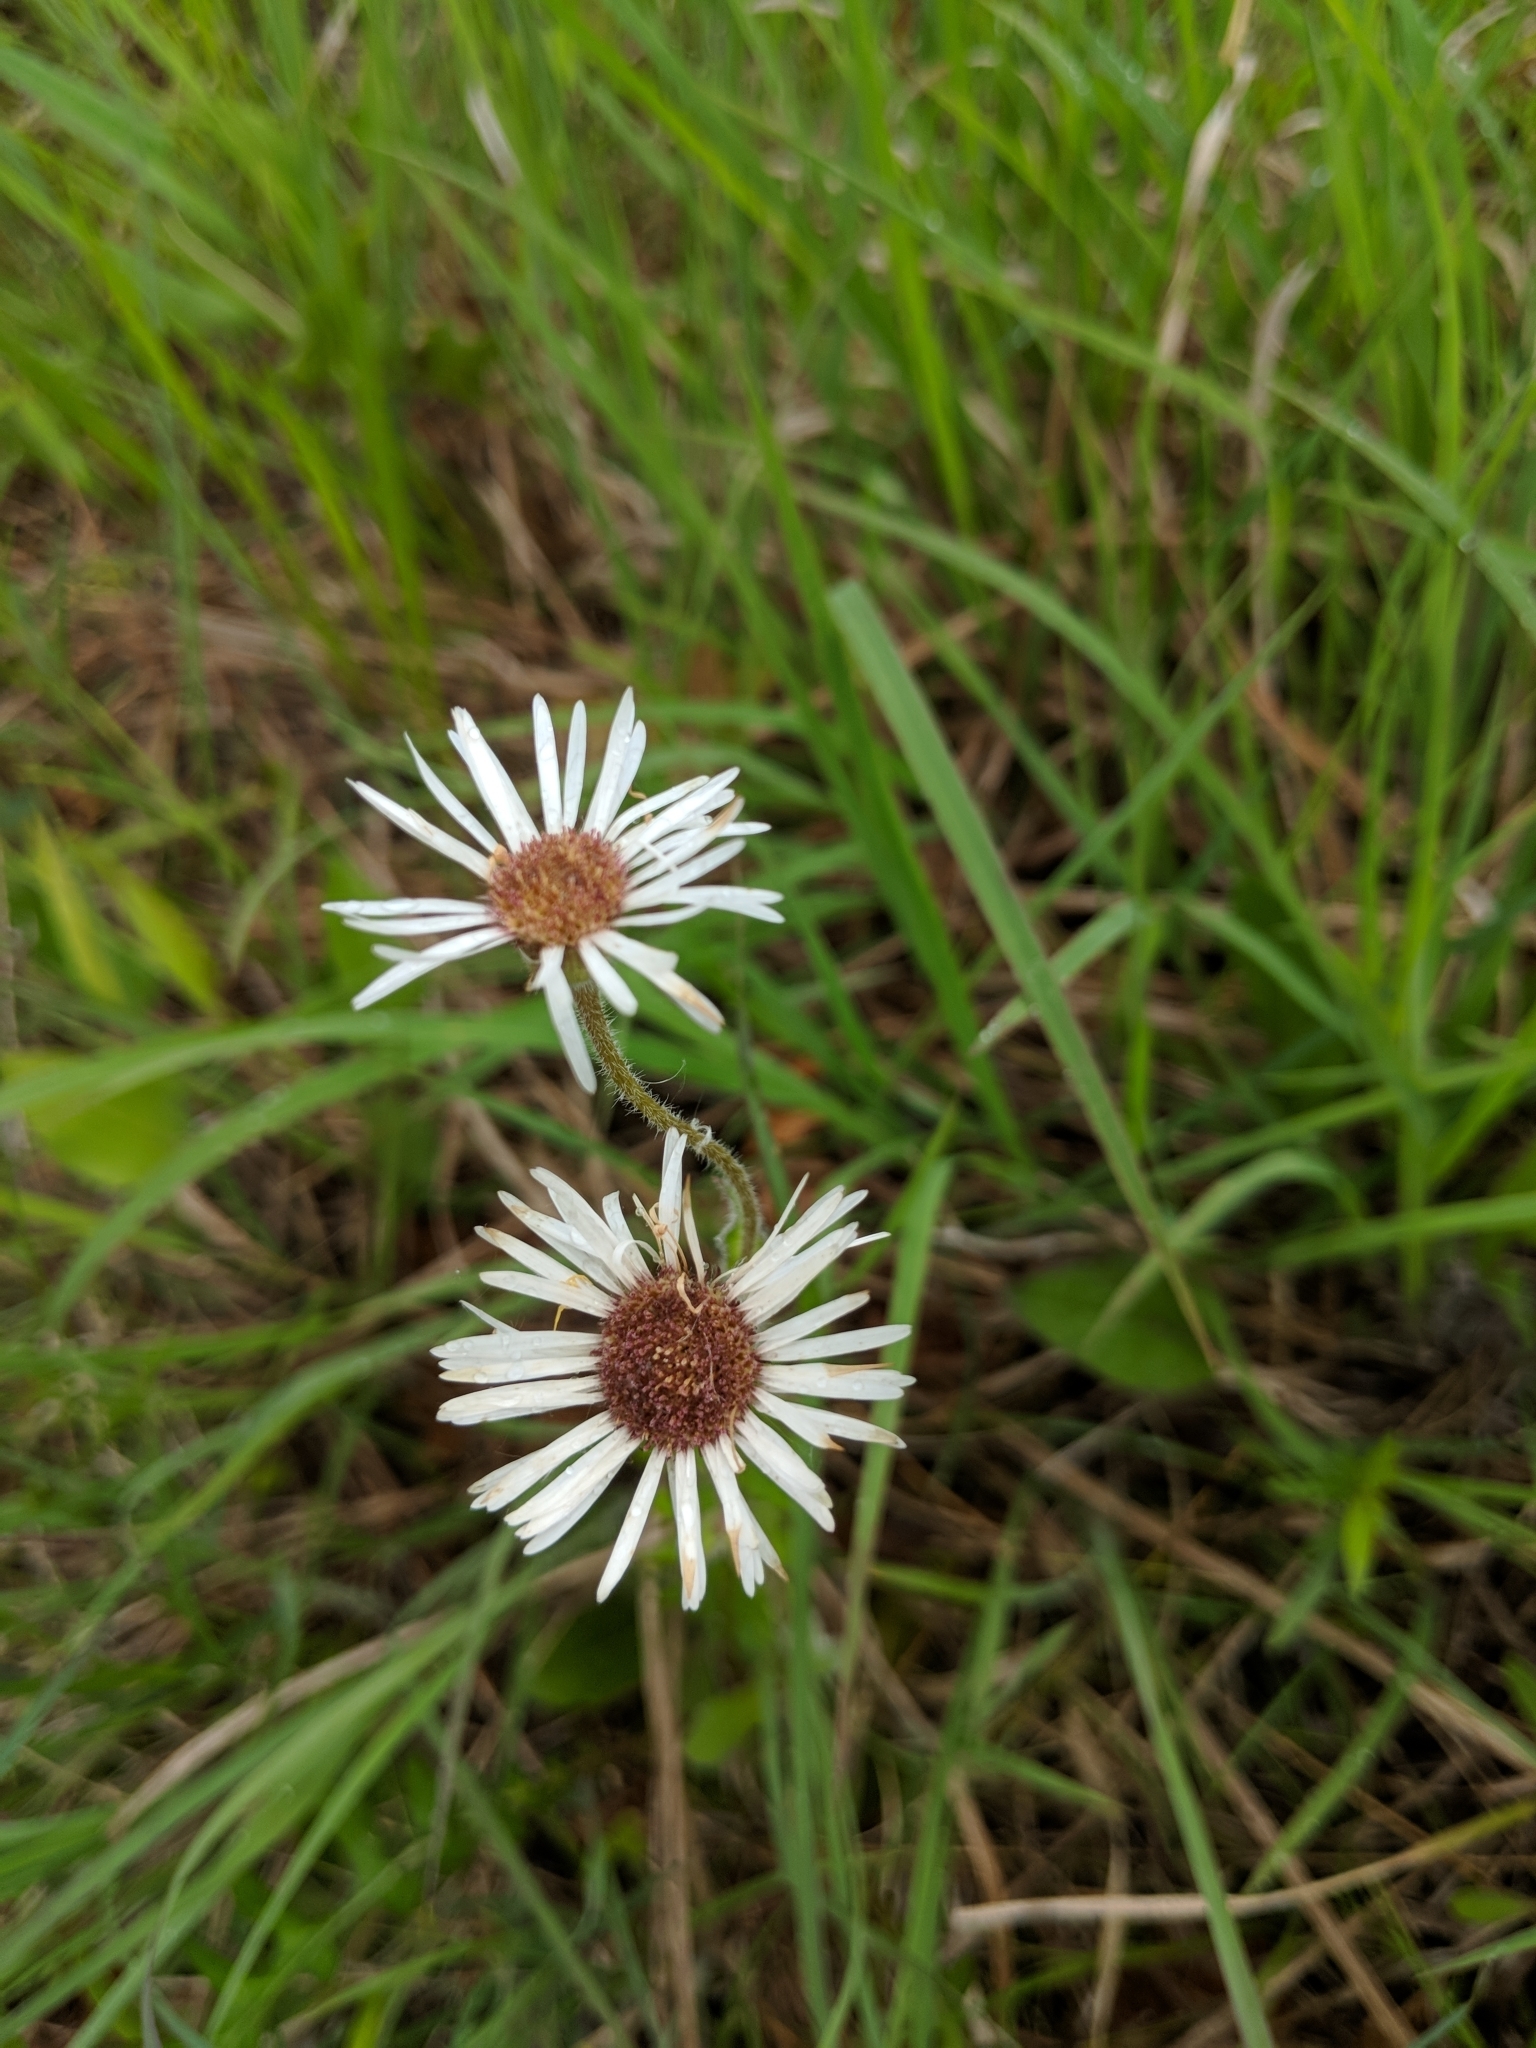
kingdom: Plantae
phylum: Tracheophyta
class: Magnoliopsida
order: Asterales
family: Asteraceae
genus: Erigeron
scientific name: Erigeron pulchellus
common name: Hairy fleabane
